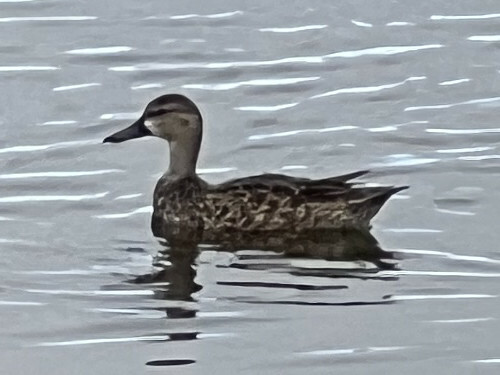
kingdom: Animalia
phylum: Chordata
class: Aves
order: Anseriformes
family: Anatidae
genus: Spatula
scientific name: Spatula discors
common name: Blue-winged teal
